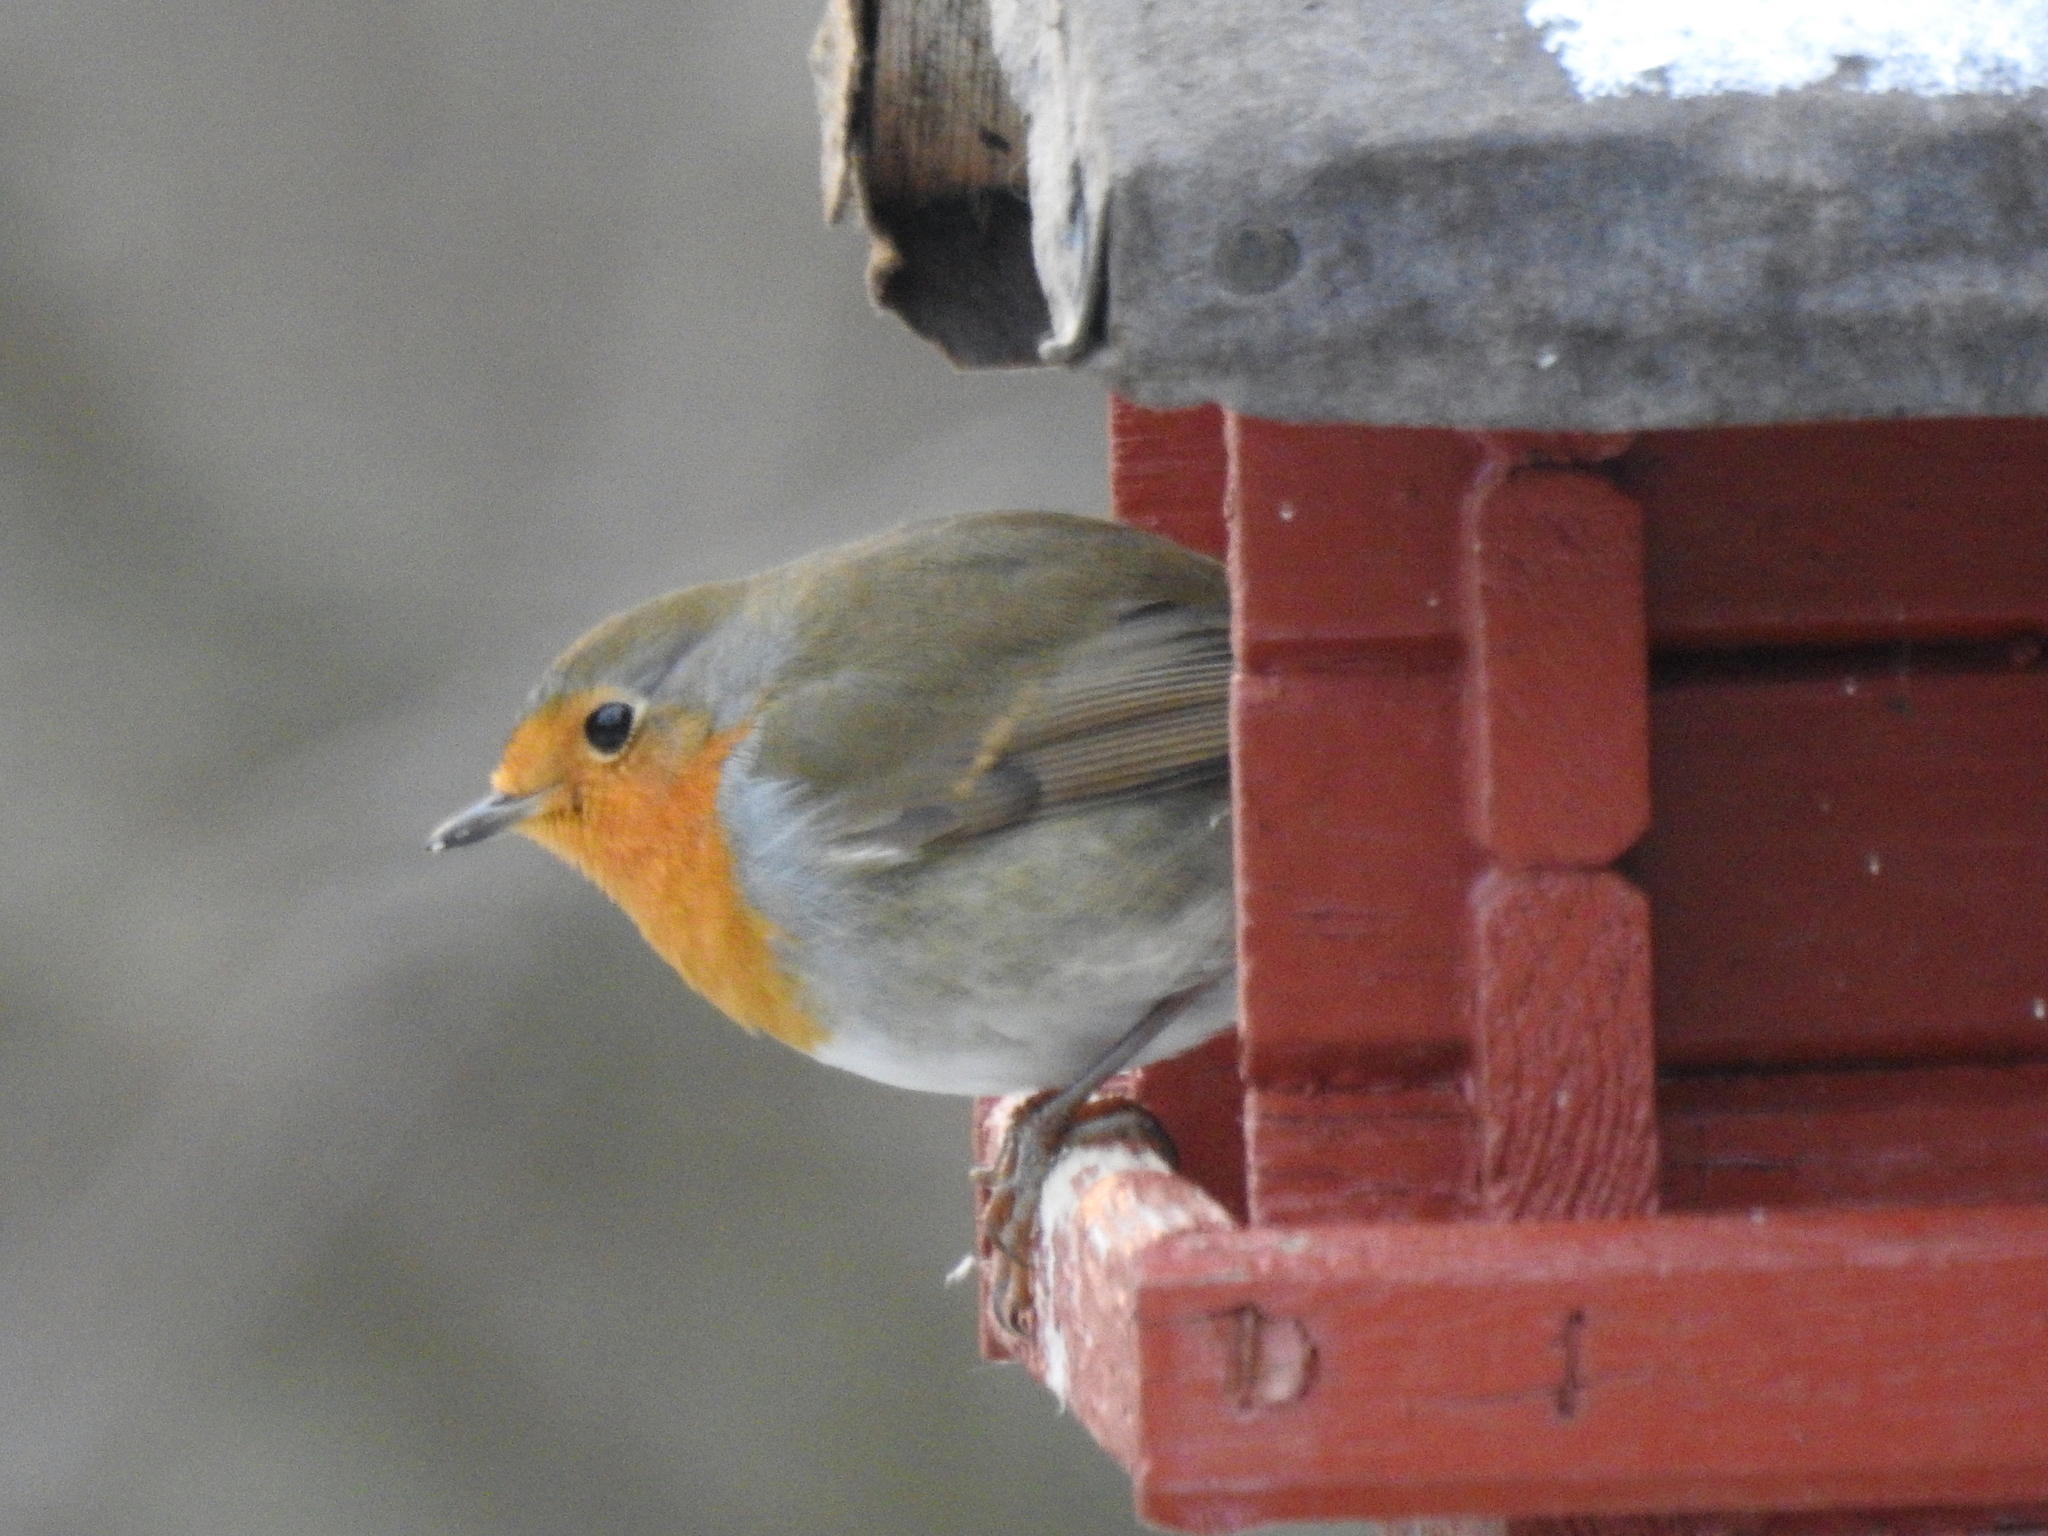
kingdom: Animalia
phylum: Chordata
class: Aves
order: Passeriformes
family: Muscicapidae
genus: Erithacus
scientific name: Erithacus rubecula
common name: European robin
